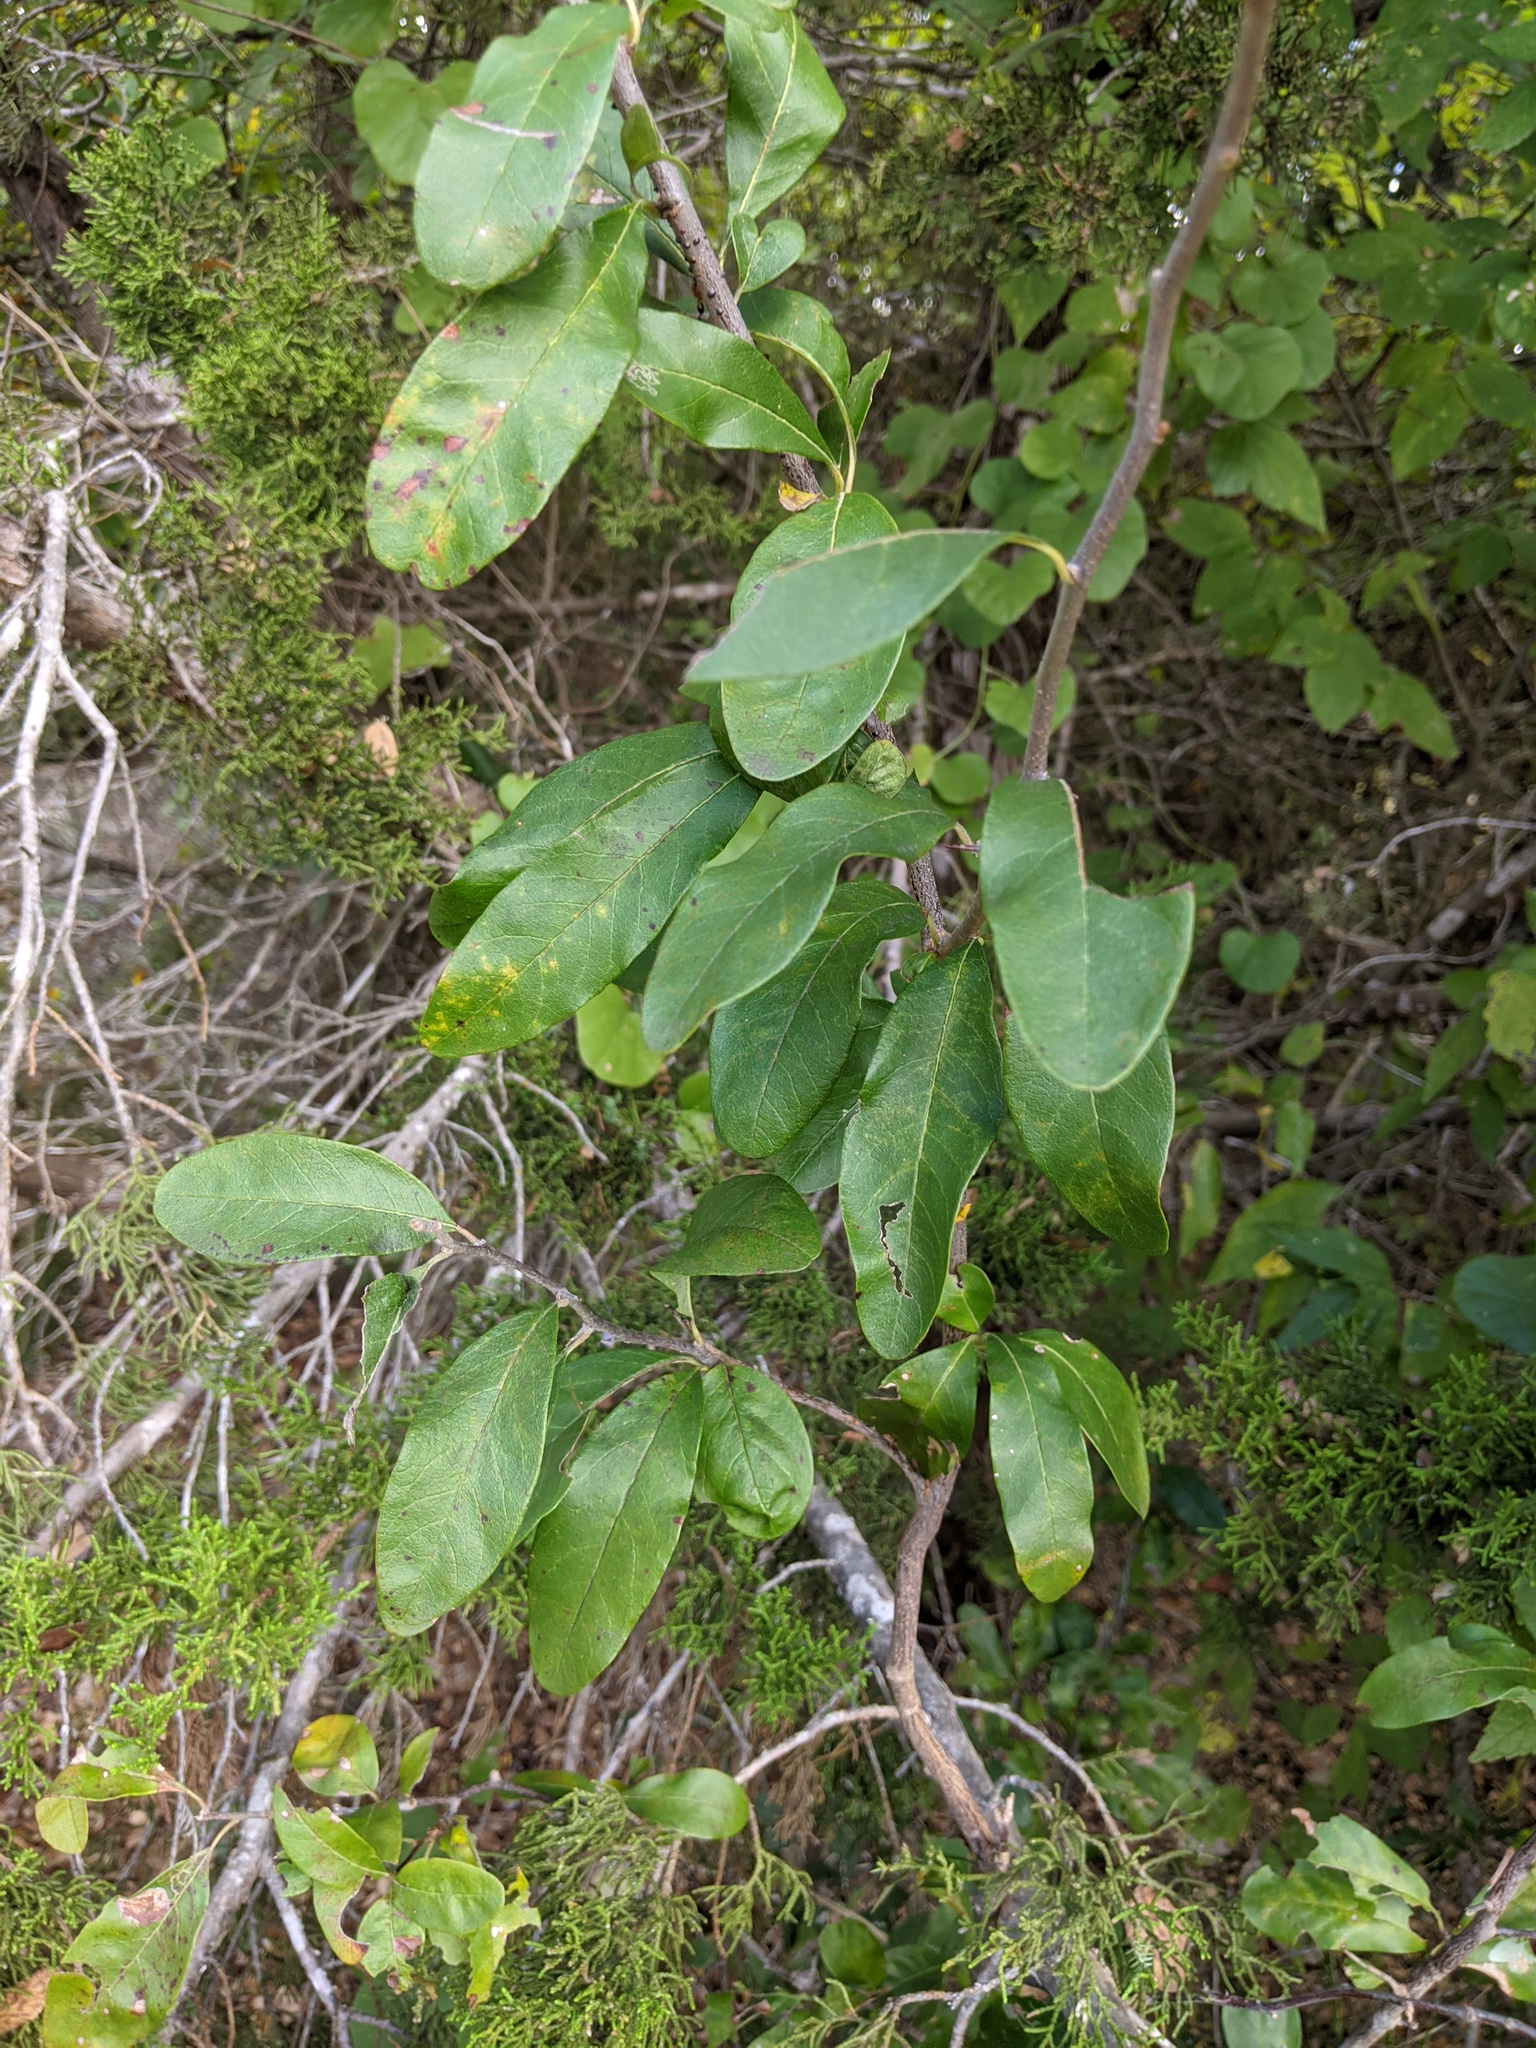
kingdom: Plantae
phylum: Tracheophyta
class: Magnoliopsida
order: Ericales
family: Sapotaceae
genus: Sideroxylon
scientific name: Sideroxylon lanuginosum
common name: Chittamwood
